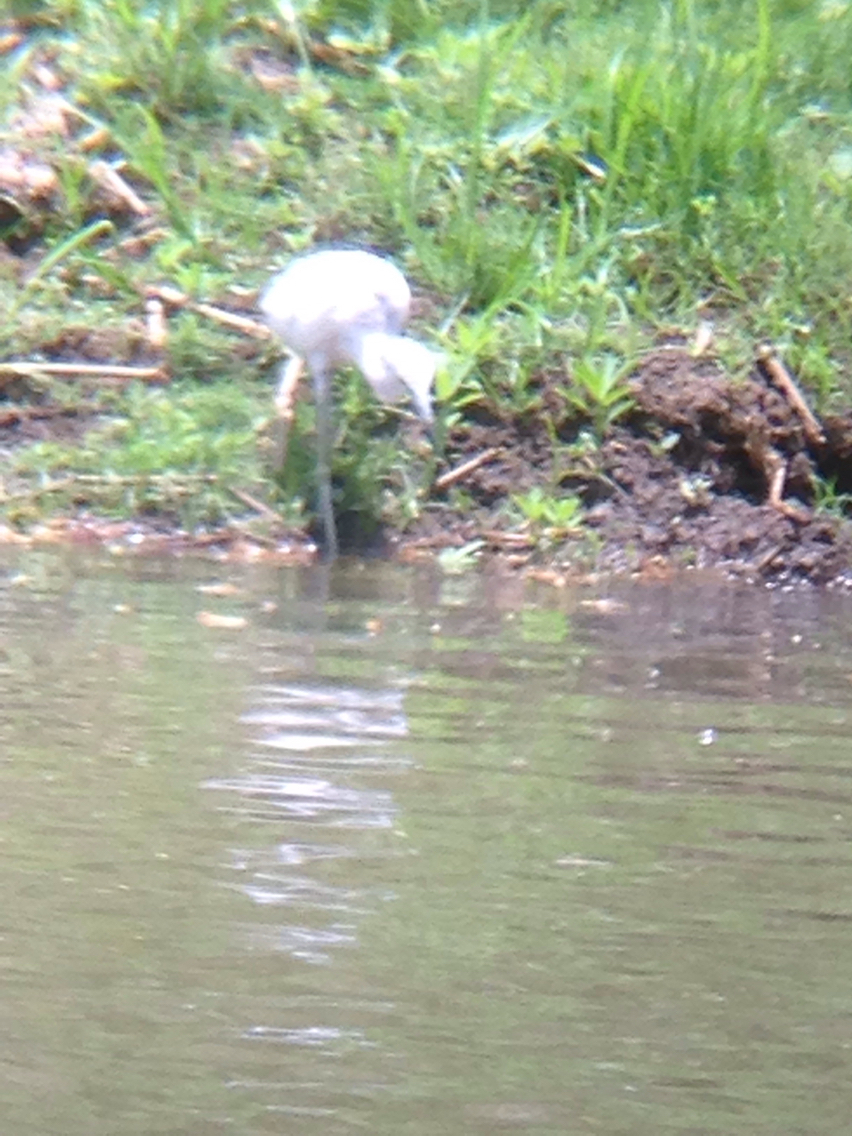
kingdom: Animalia
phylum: Chordata
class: Aves
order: Pelecaniformes
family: Ardeidae
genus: Egretta
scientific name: Egretta caerulea
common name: Little blue heron
